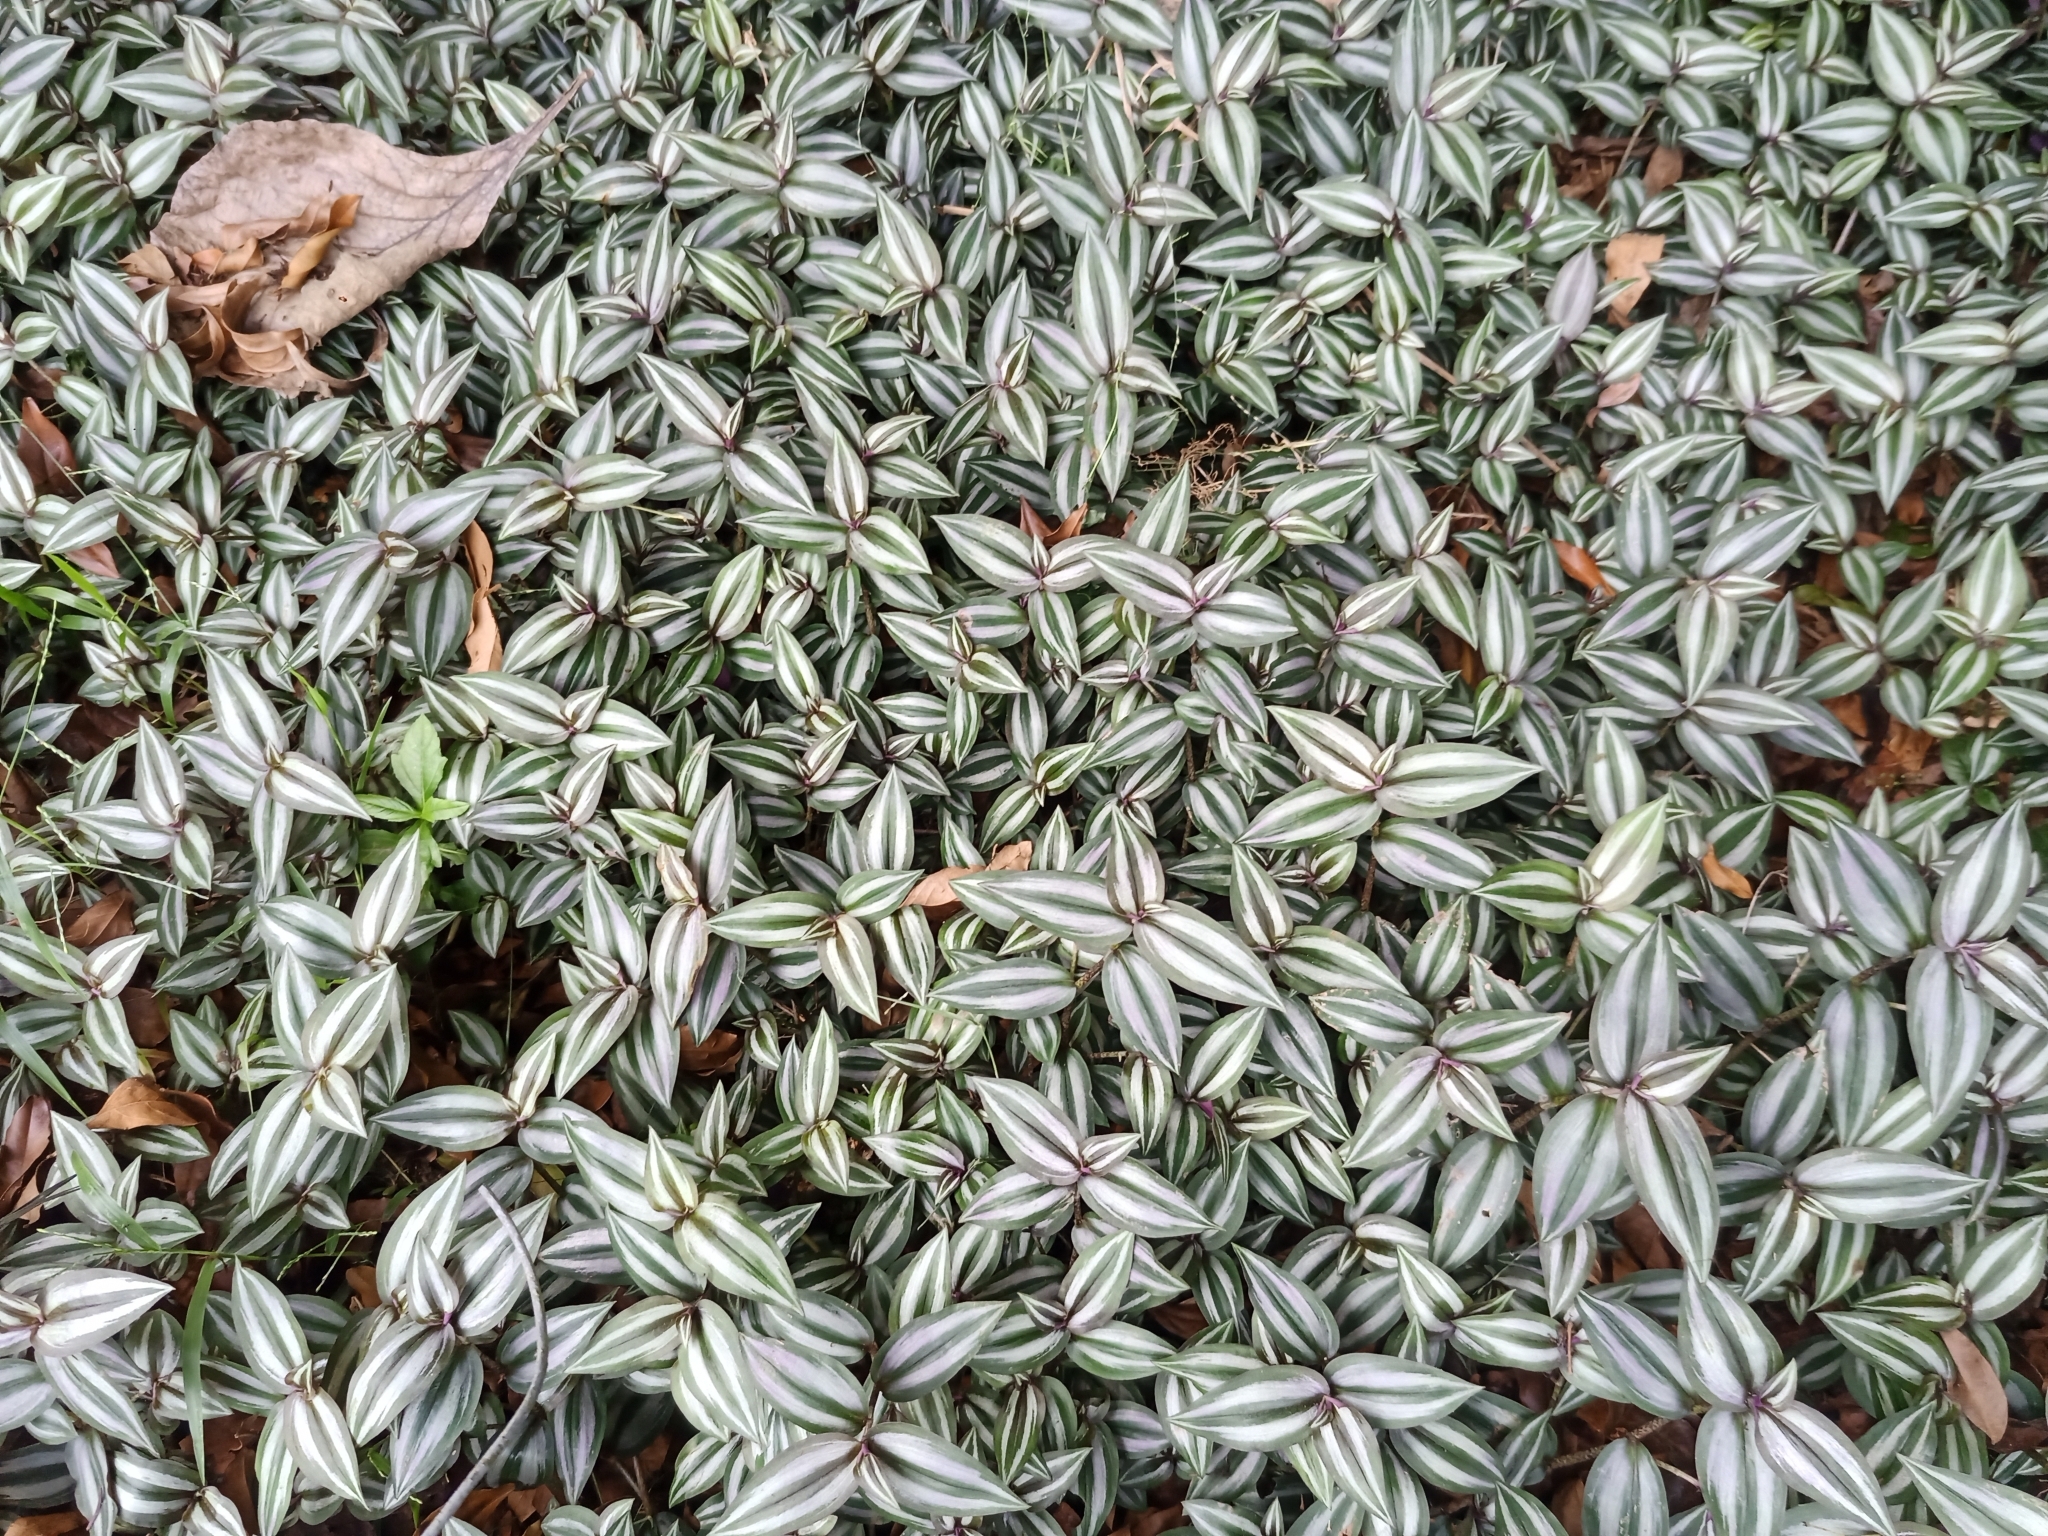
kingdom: Plantae
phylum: Tracheophyta
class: Liliopsida
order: Commelinales
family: Commelinaceae
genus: Tradescantia
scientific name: Tradescantia zebrina
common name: Inchplant
